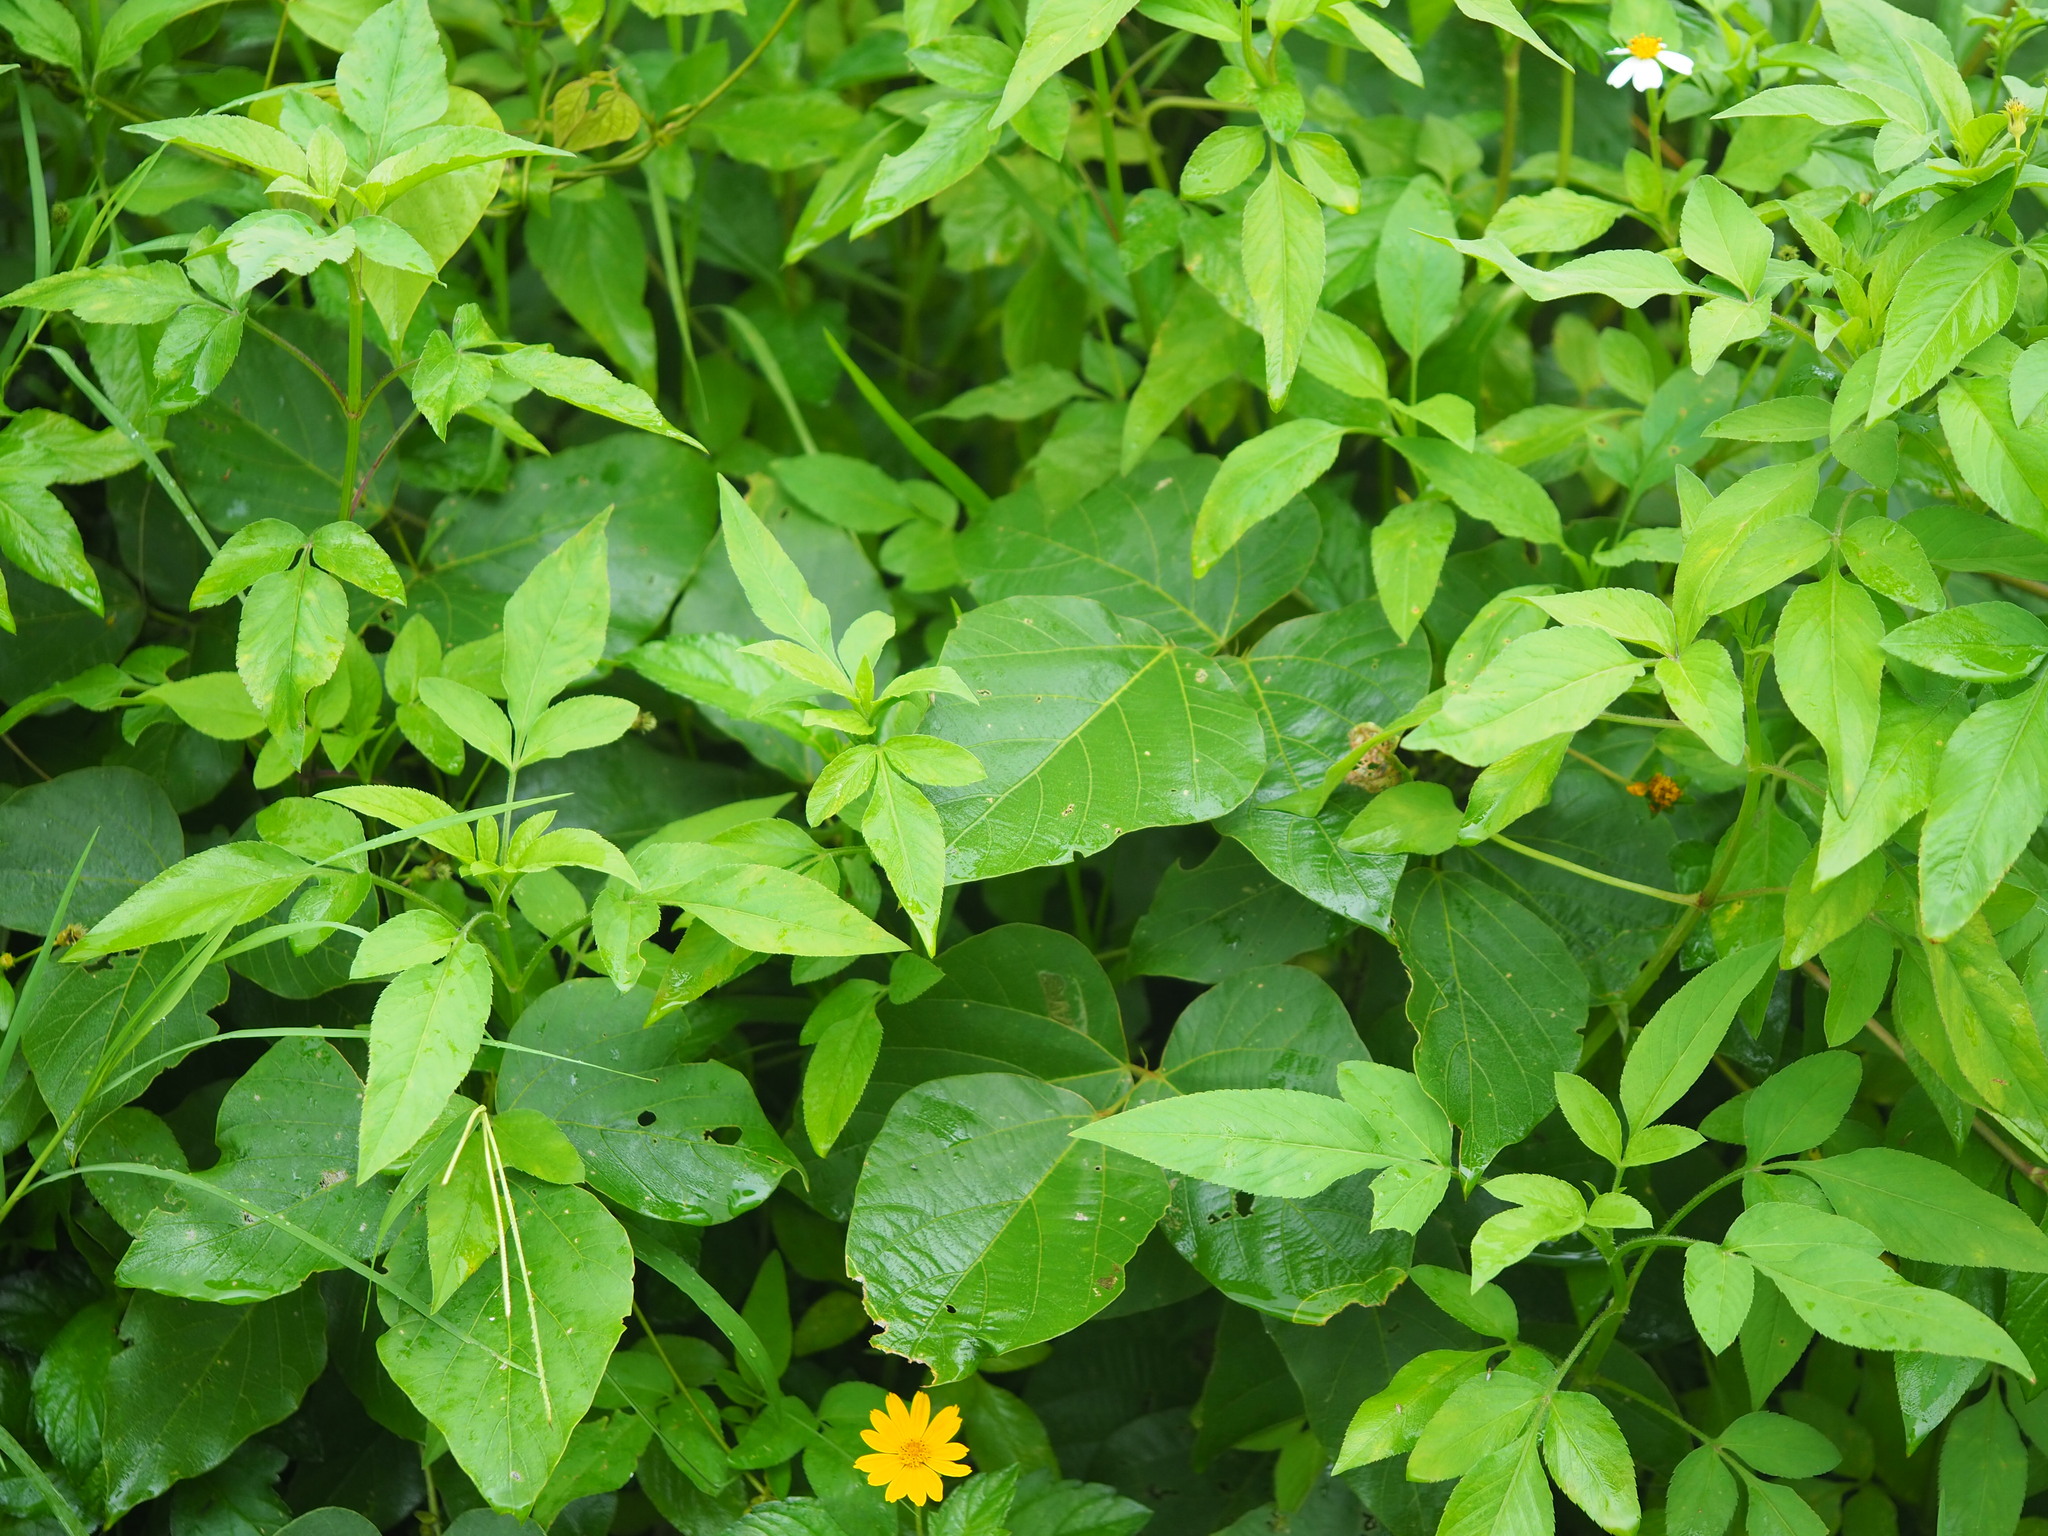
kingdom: Plantae
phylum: Tracheophyta
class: Magnoliopsida
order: Fabales
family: Fabaceae
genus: Pueraria
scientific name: Pueraria montana
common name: Kudzu
